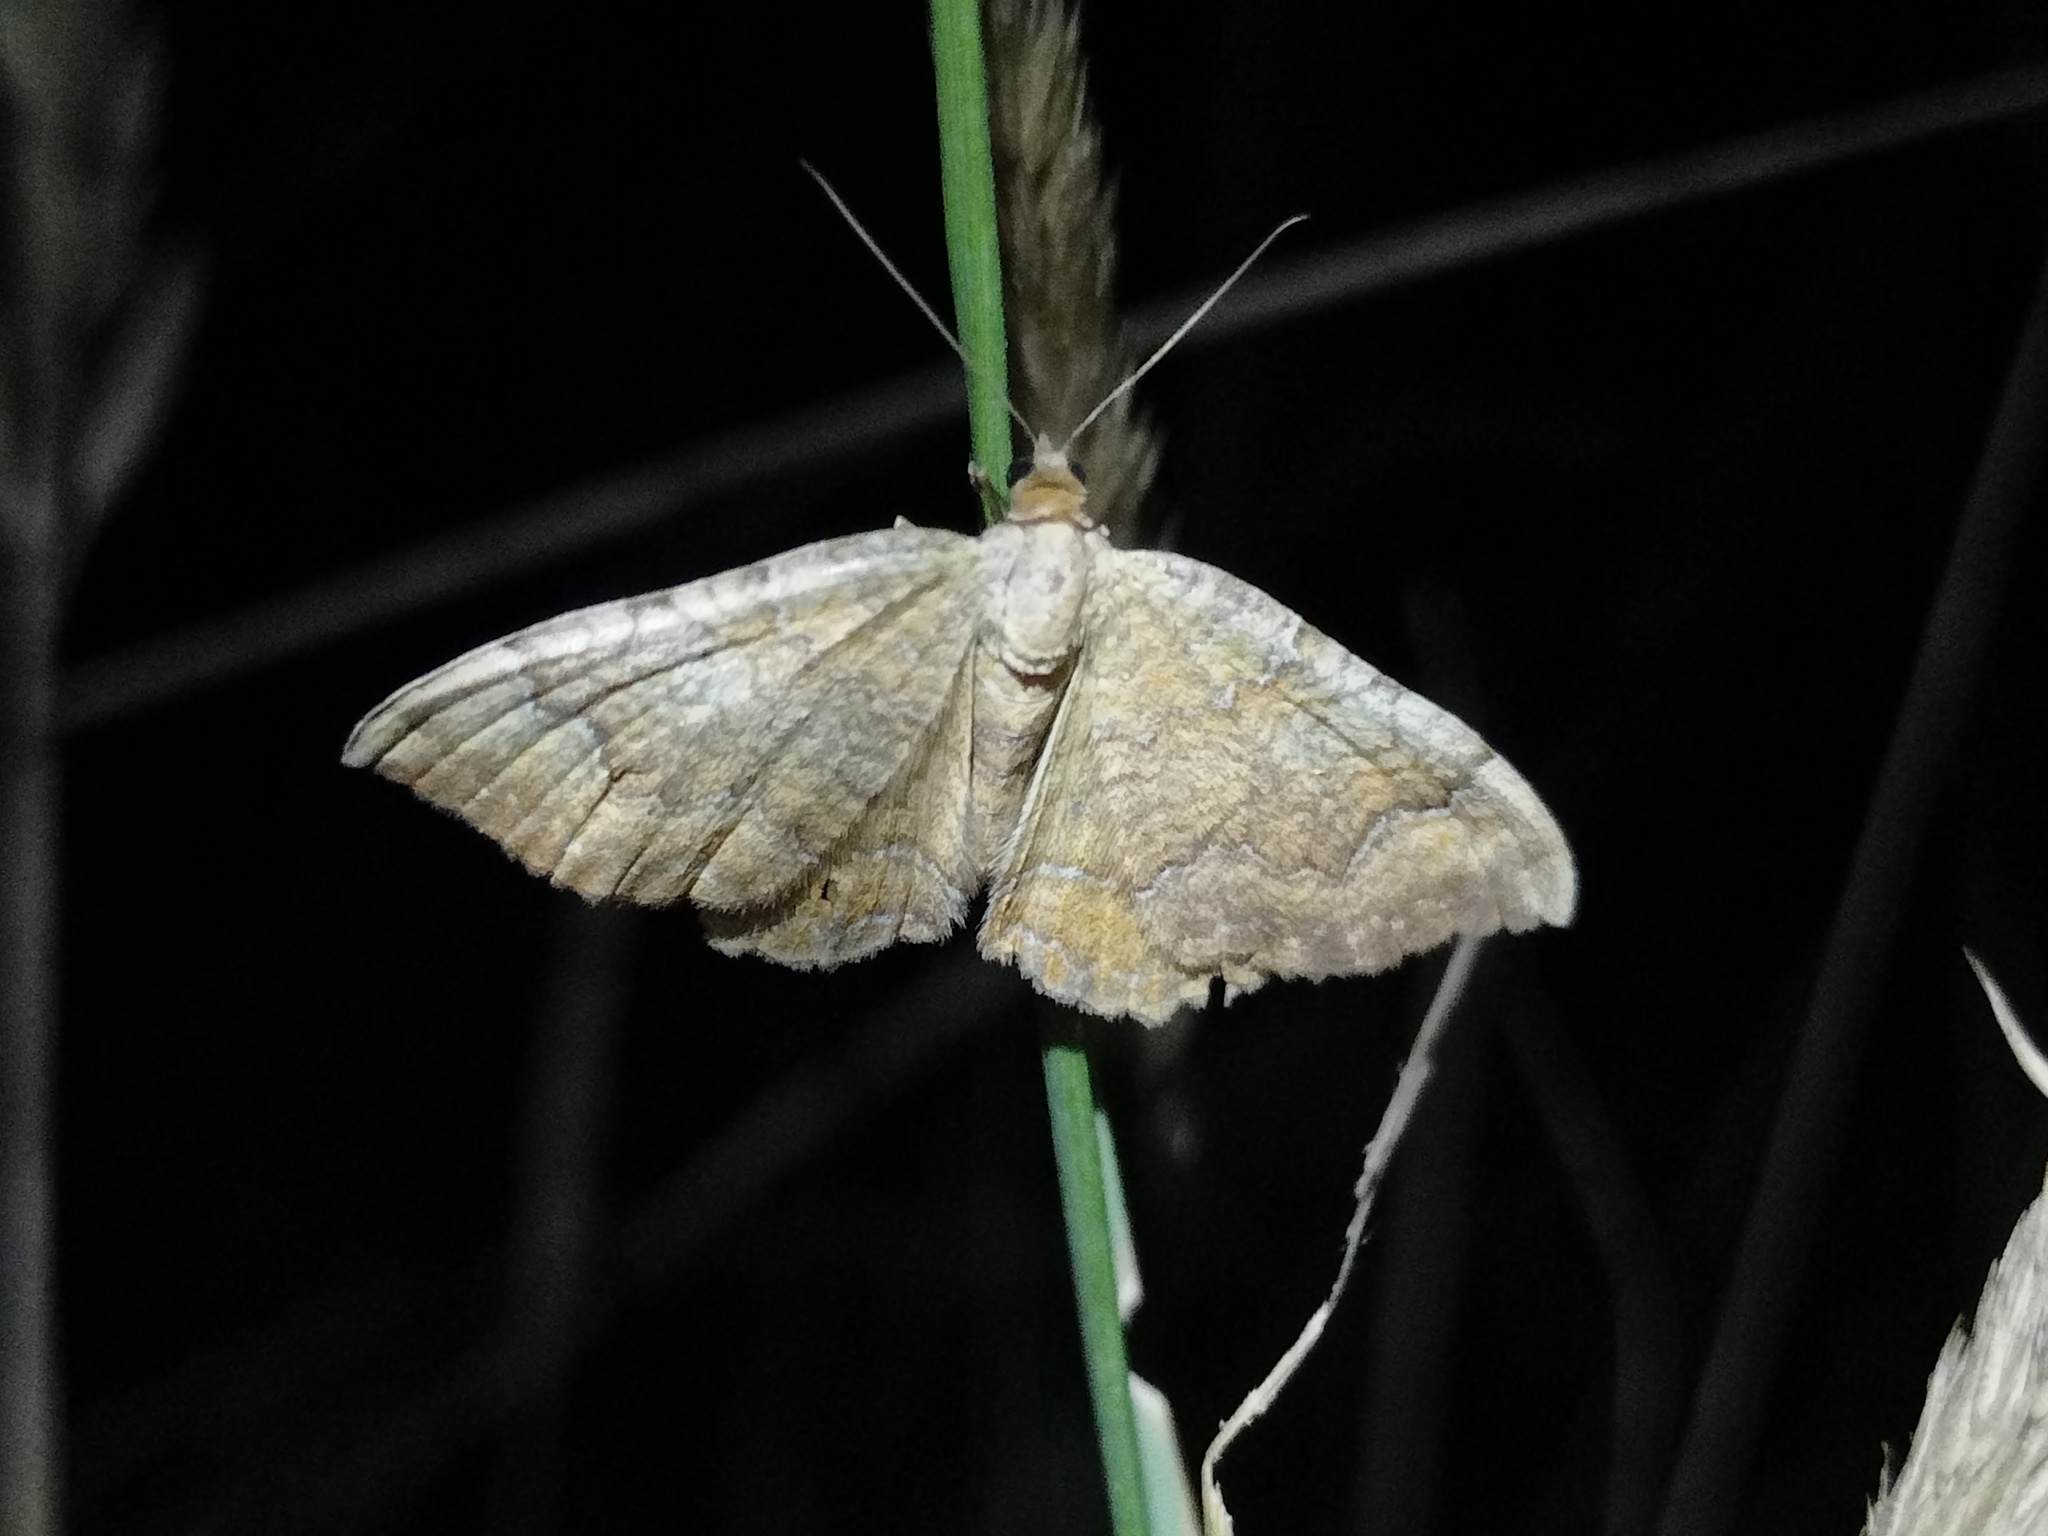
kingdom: Animalia
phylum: Arthropoda
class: Insecta
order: Lepidoptera
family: Geometridae
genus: Camptogramma
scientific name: Camptogramma bilineata
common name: Yellow shell
